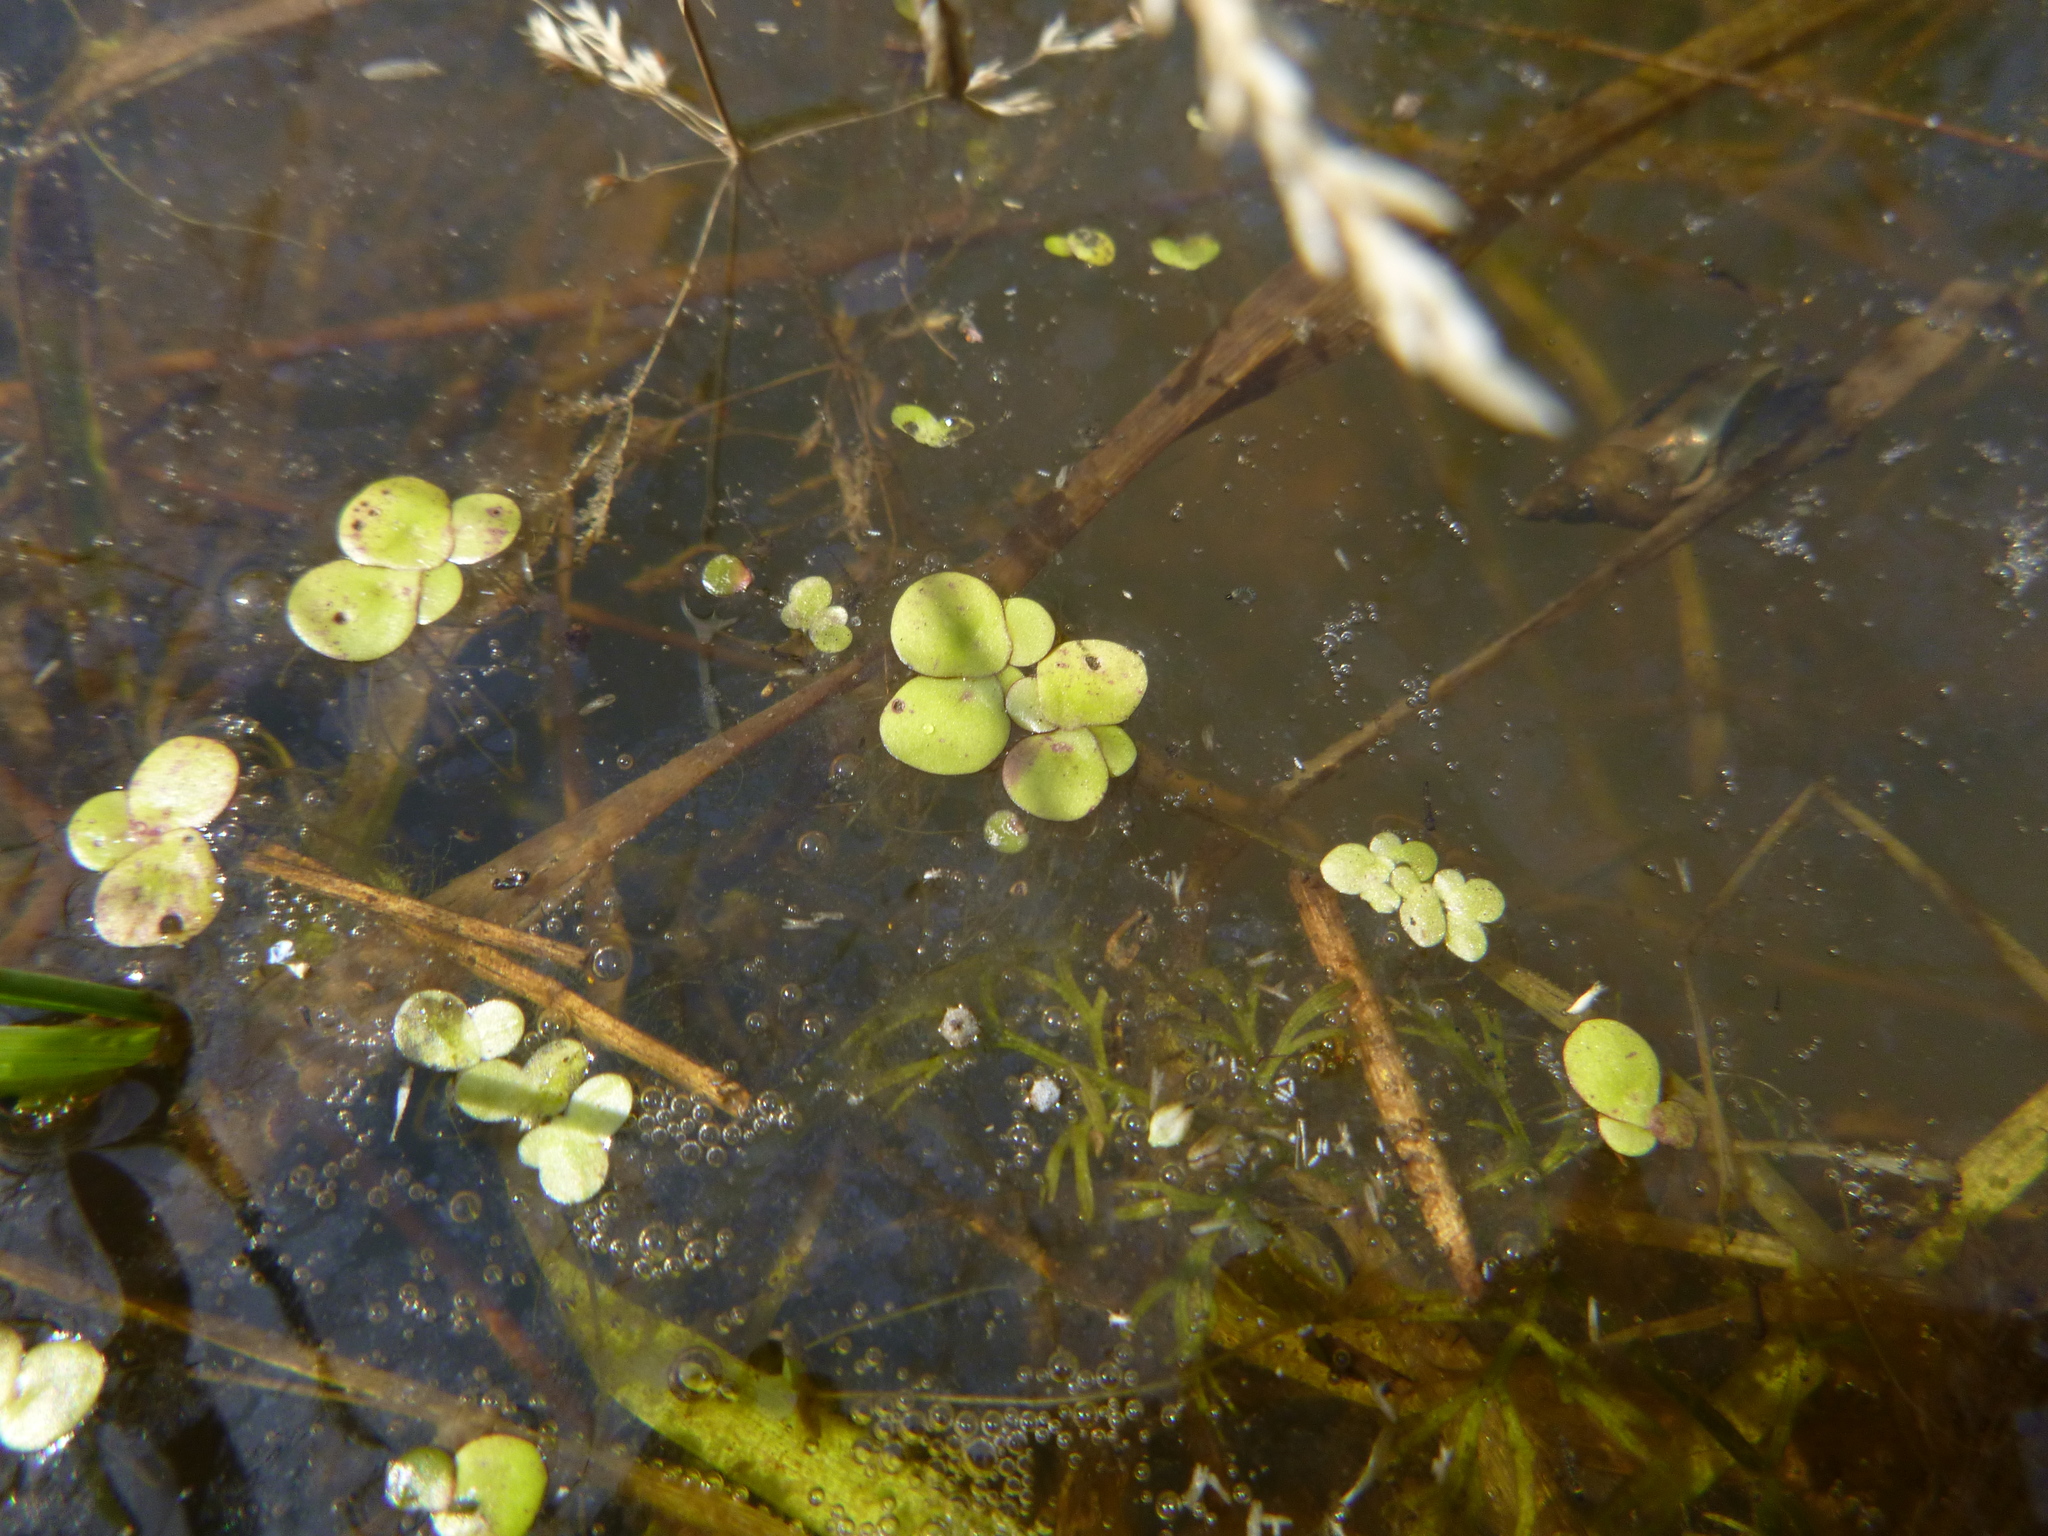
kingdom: Plantae
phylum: Tracheophyta
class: Liliopsida
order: Alismatales
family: Araceae
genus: Spirodela
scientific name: Spirodela polyrhiza
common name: Great duckweed
